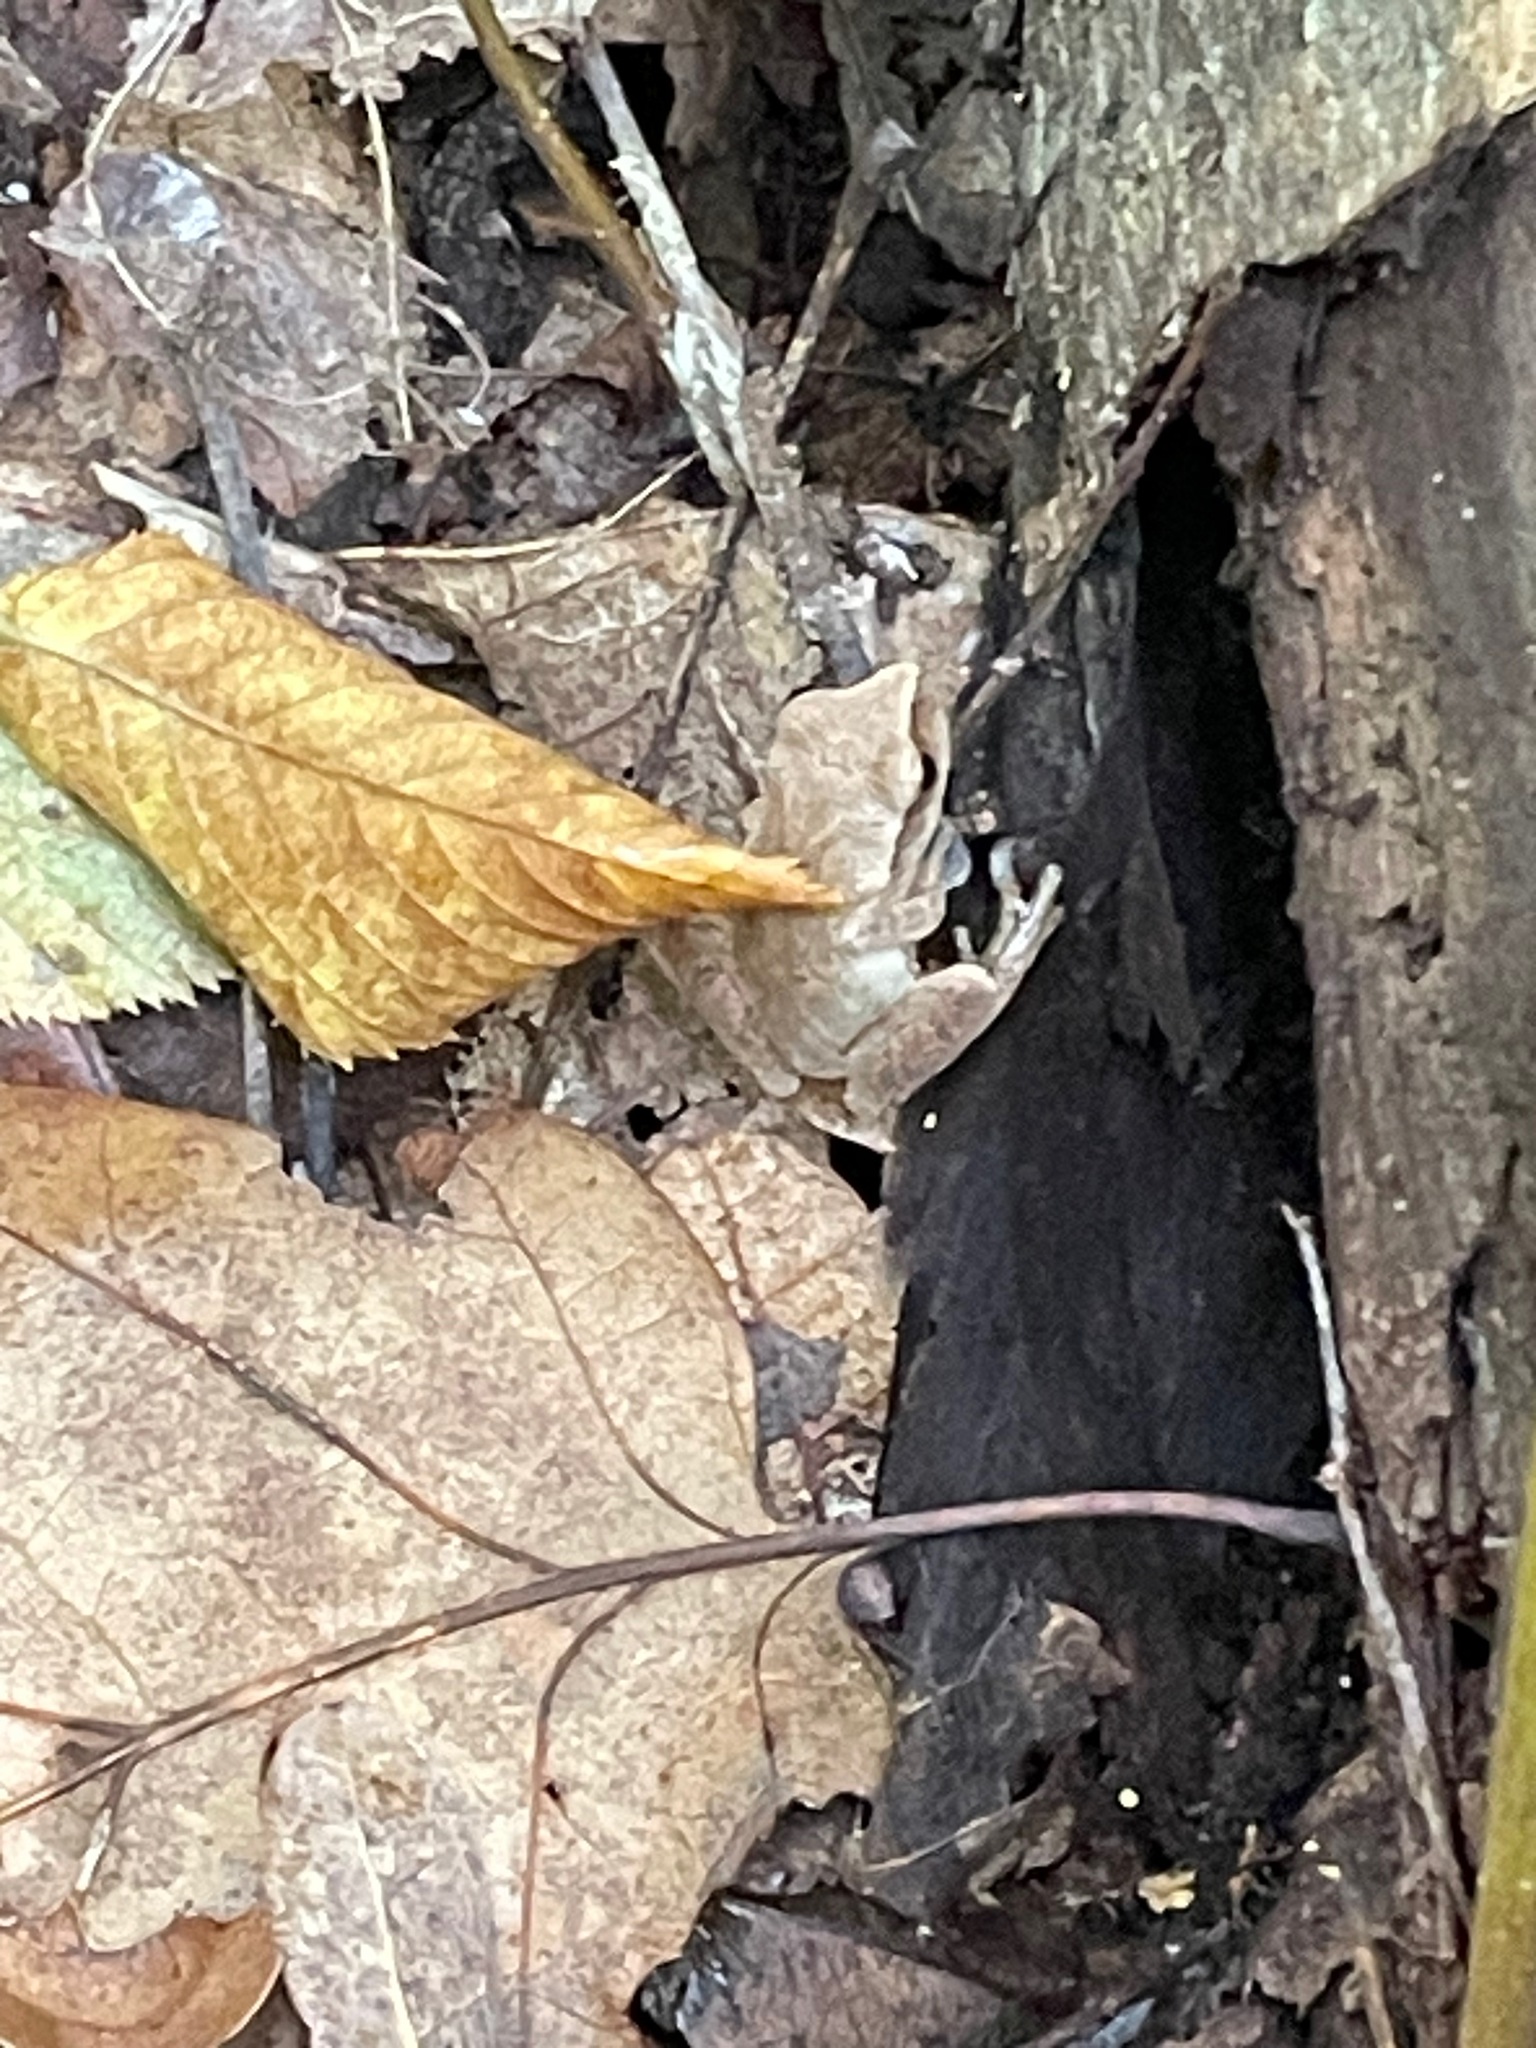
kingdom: Animalia
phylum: Chordata
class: Amphibia
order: Anura
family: Hylidae
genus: Pseudacris
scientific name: Pseudacris crucifer
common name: Spring peeper
